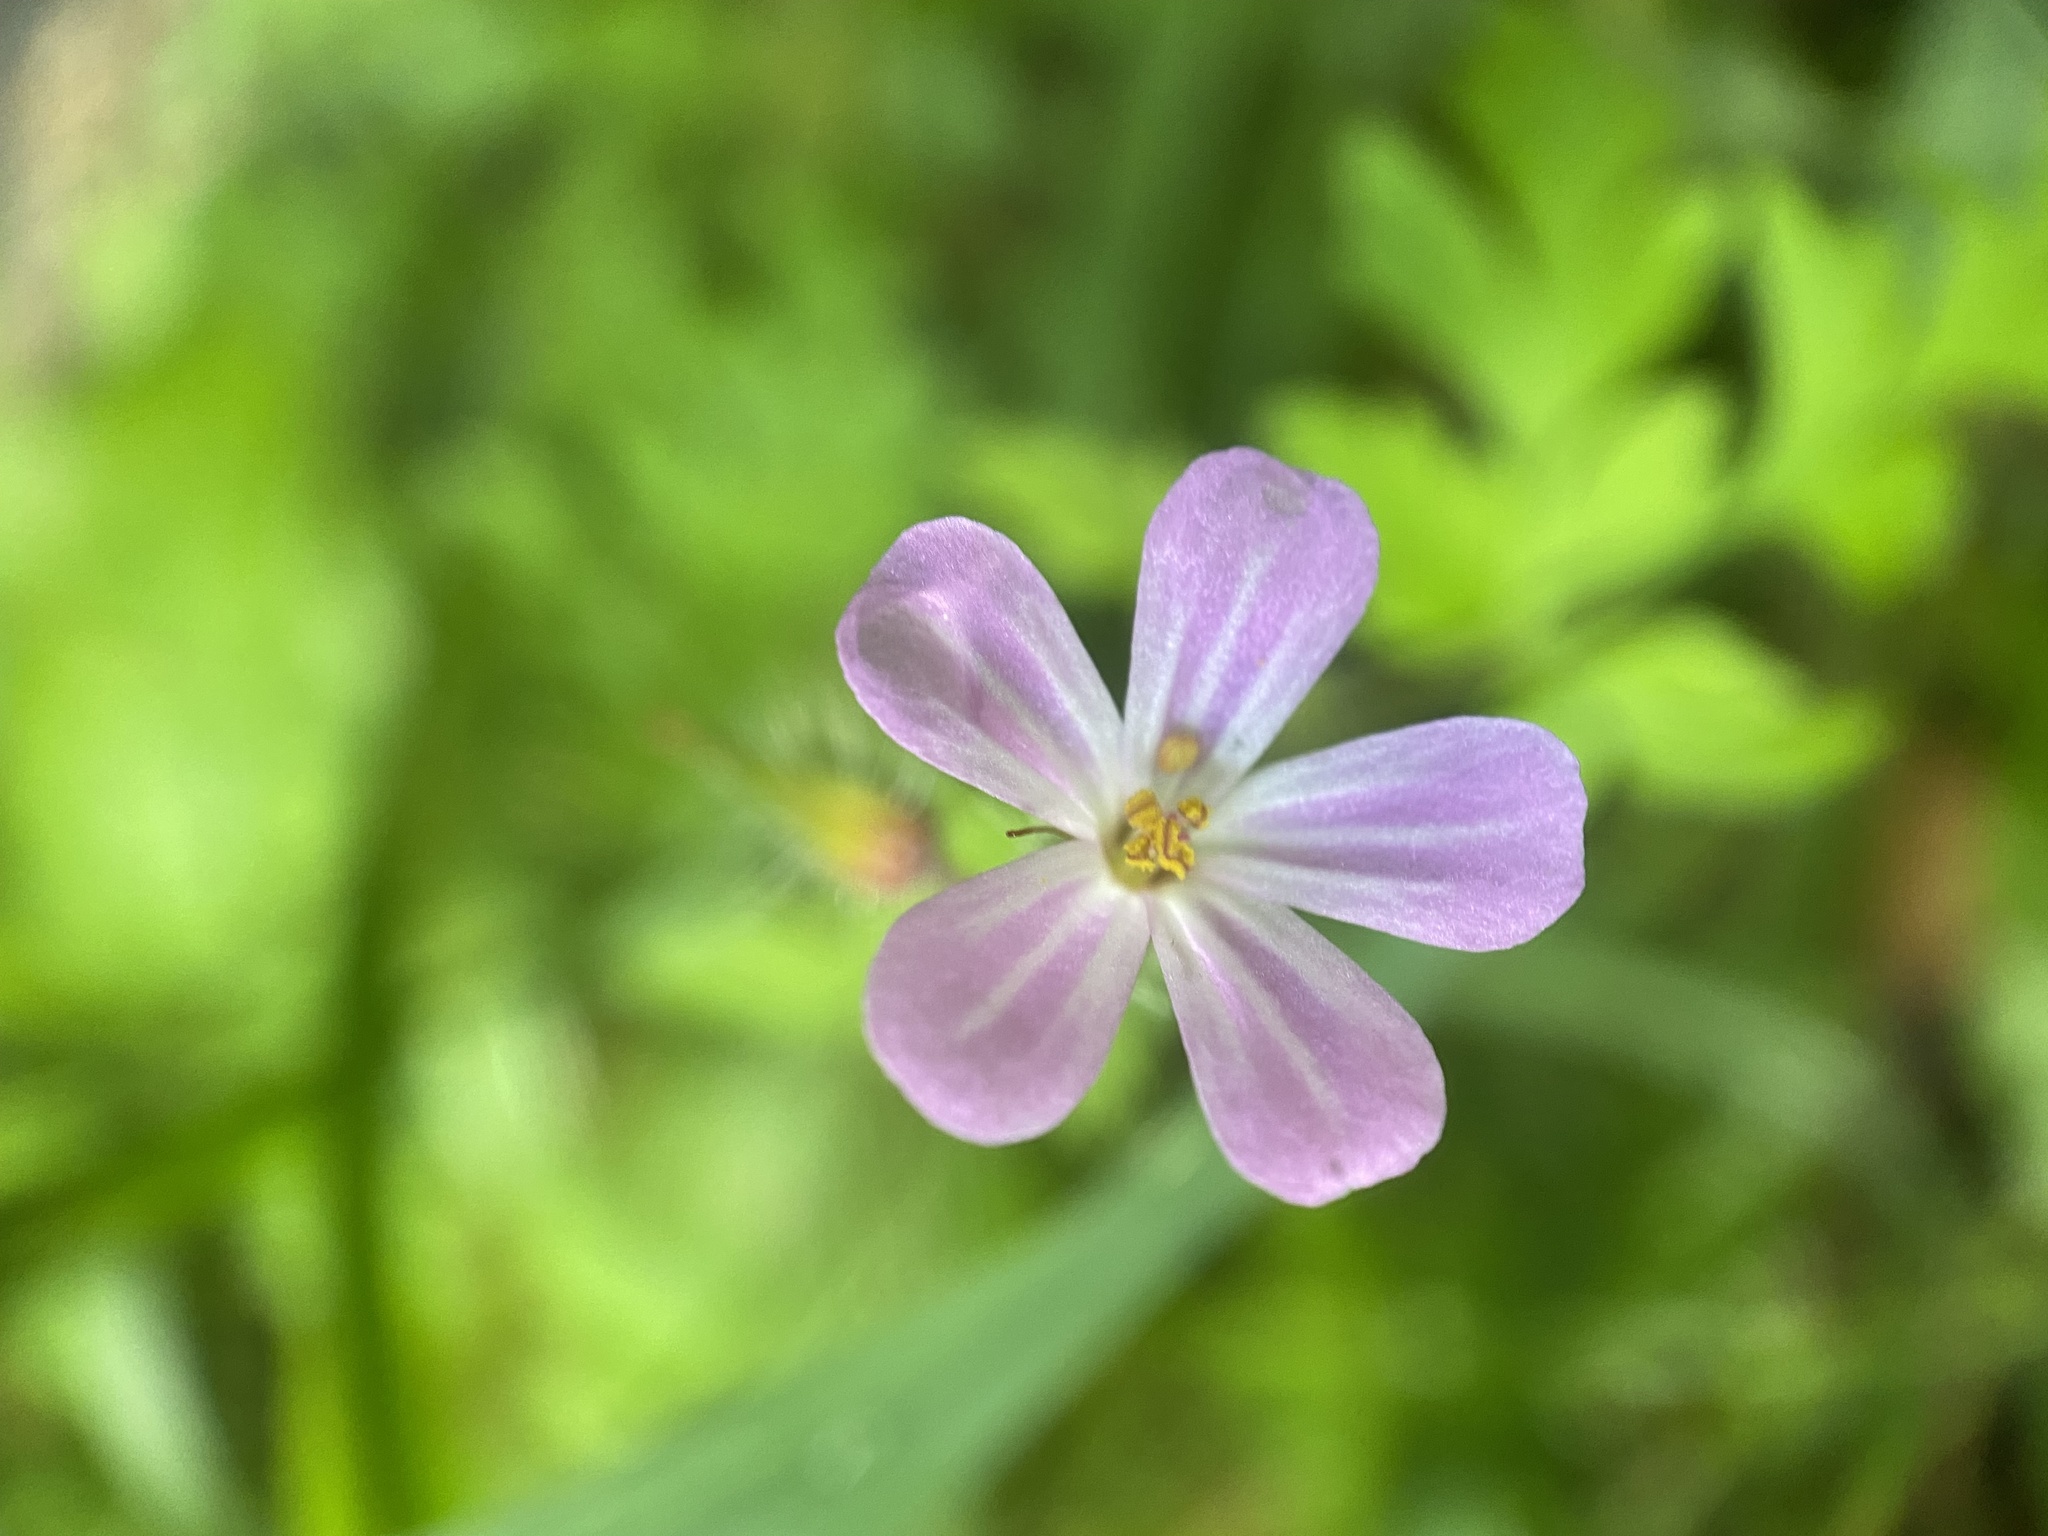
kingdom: Plantae
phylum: Tracheophyta
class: Magnoliopsida
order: Geraniales
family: Geraniaceae
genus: Geranium
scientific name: Geranium robertianum
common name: Herb-robert
